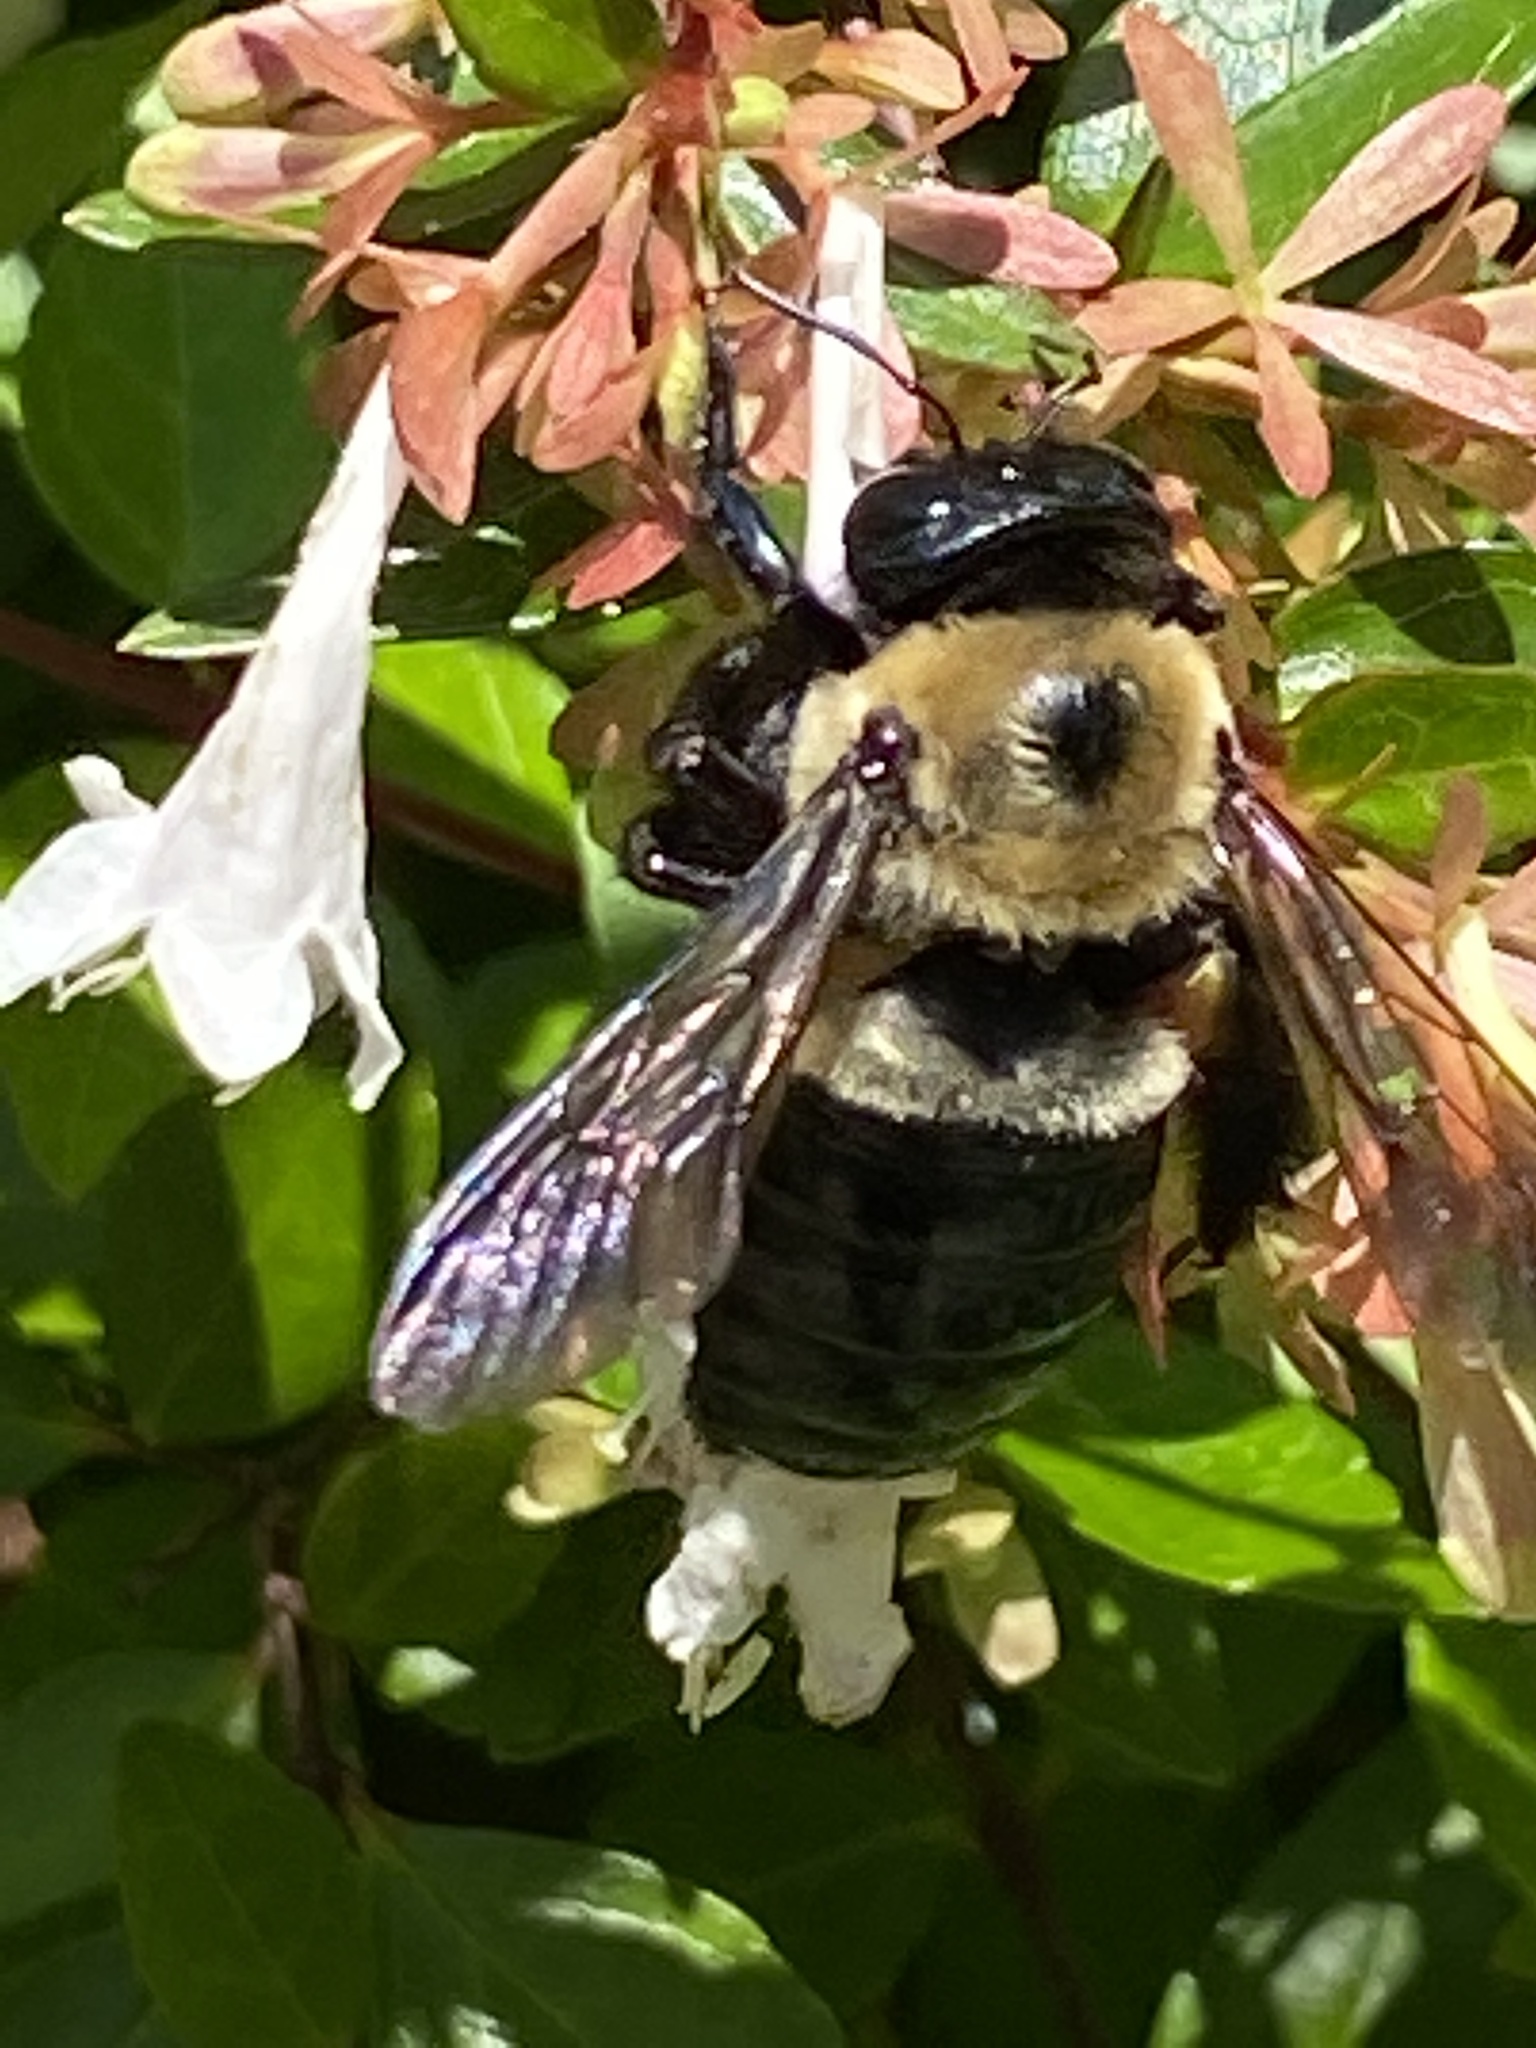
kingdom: Animalia
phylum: Arthropoda
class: Insecta
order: Hymenoptera
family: Apidae
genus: Xylocopa
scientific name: Xylocopa virginica
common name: Carpenter bee
